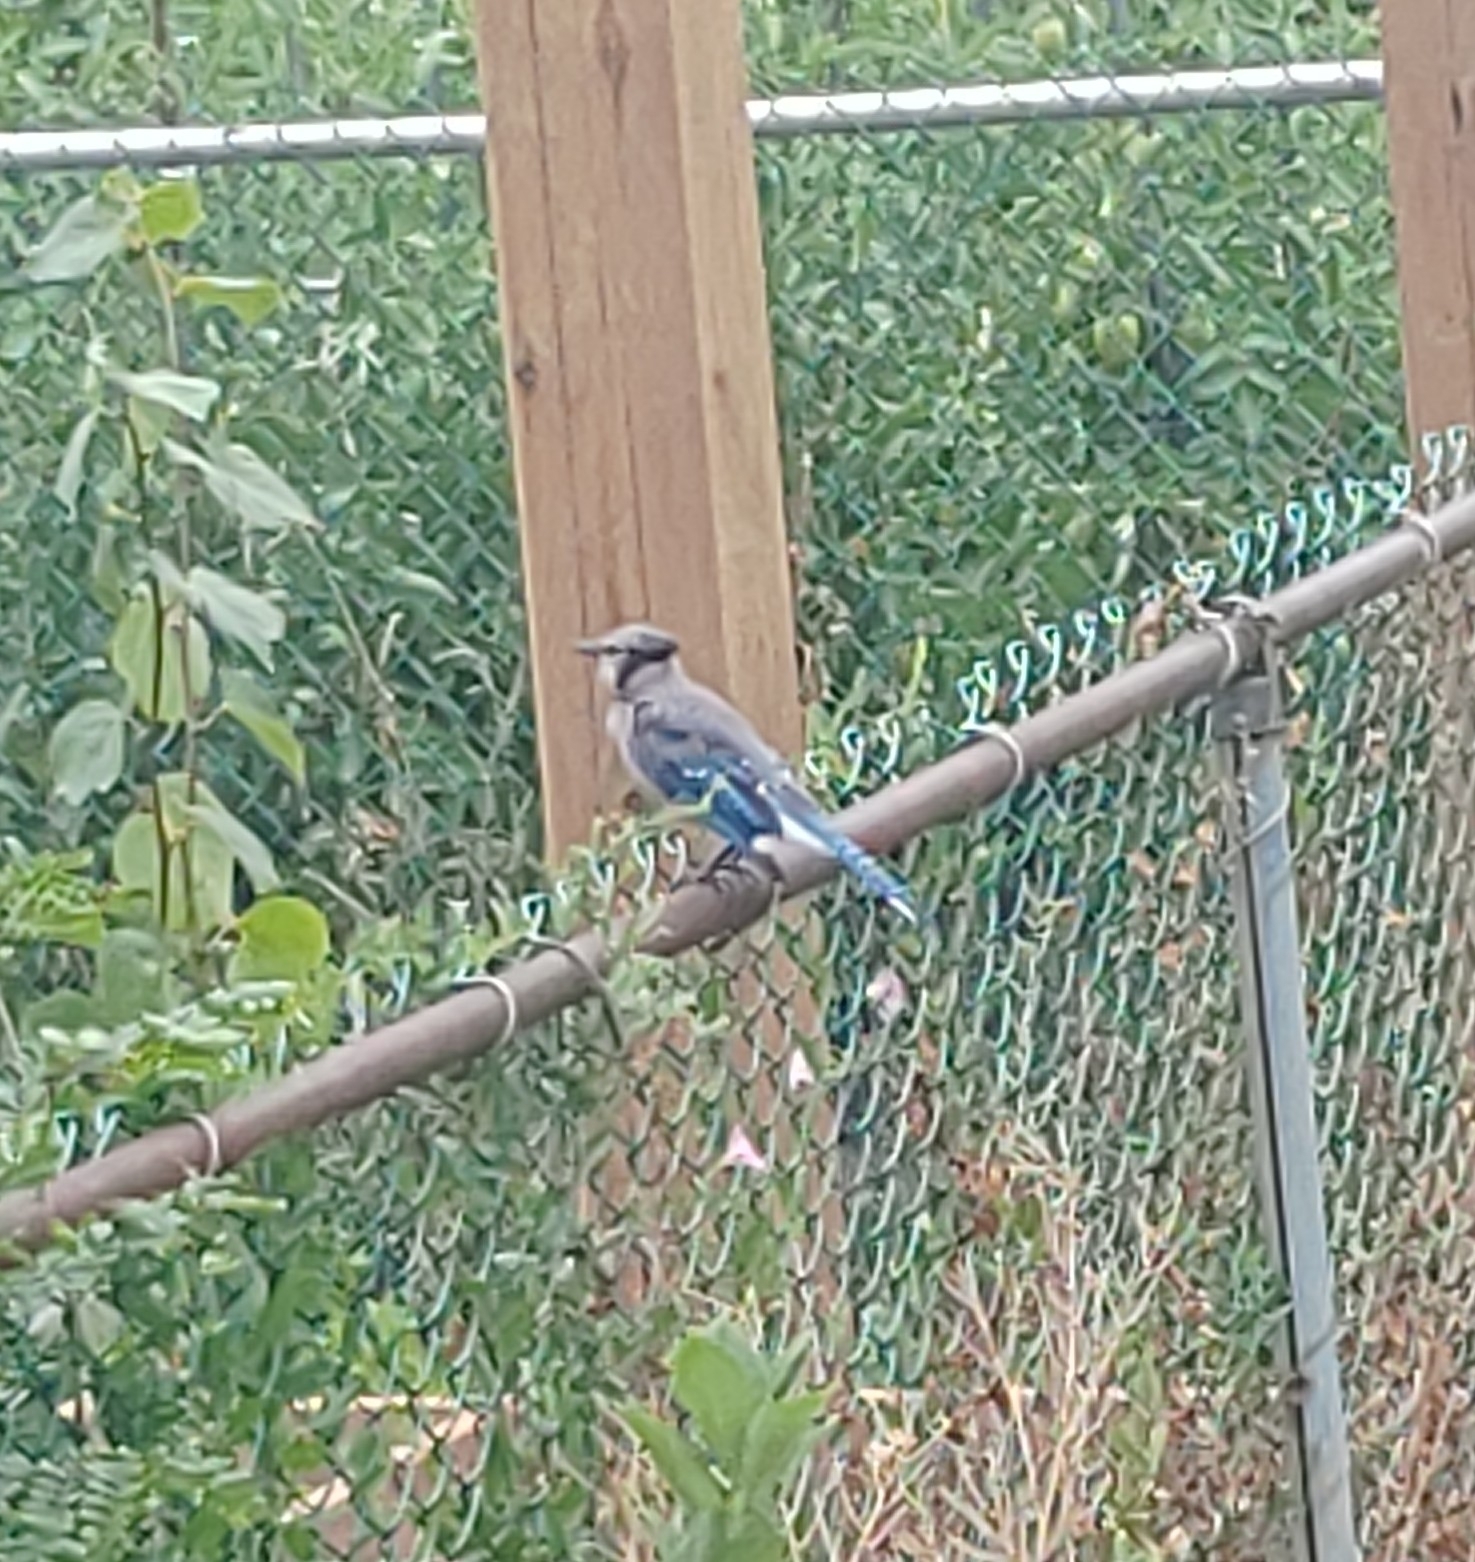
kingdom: Animalia
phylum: Chordata
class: Aves
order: Passeriformes
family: Corvidae
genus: Cyanocitta
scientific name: Cyanocitta cristata
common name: Blue jay
